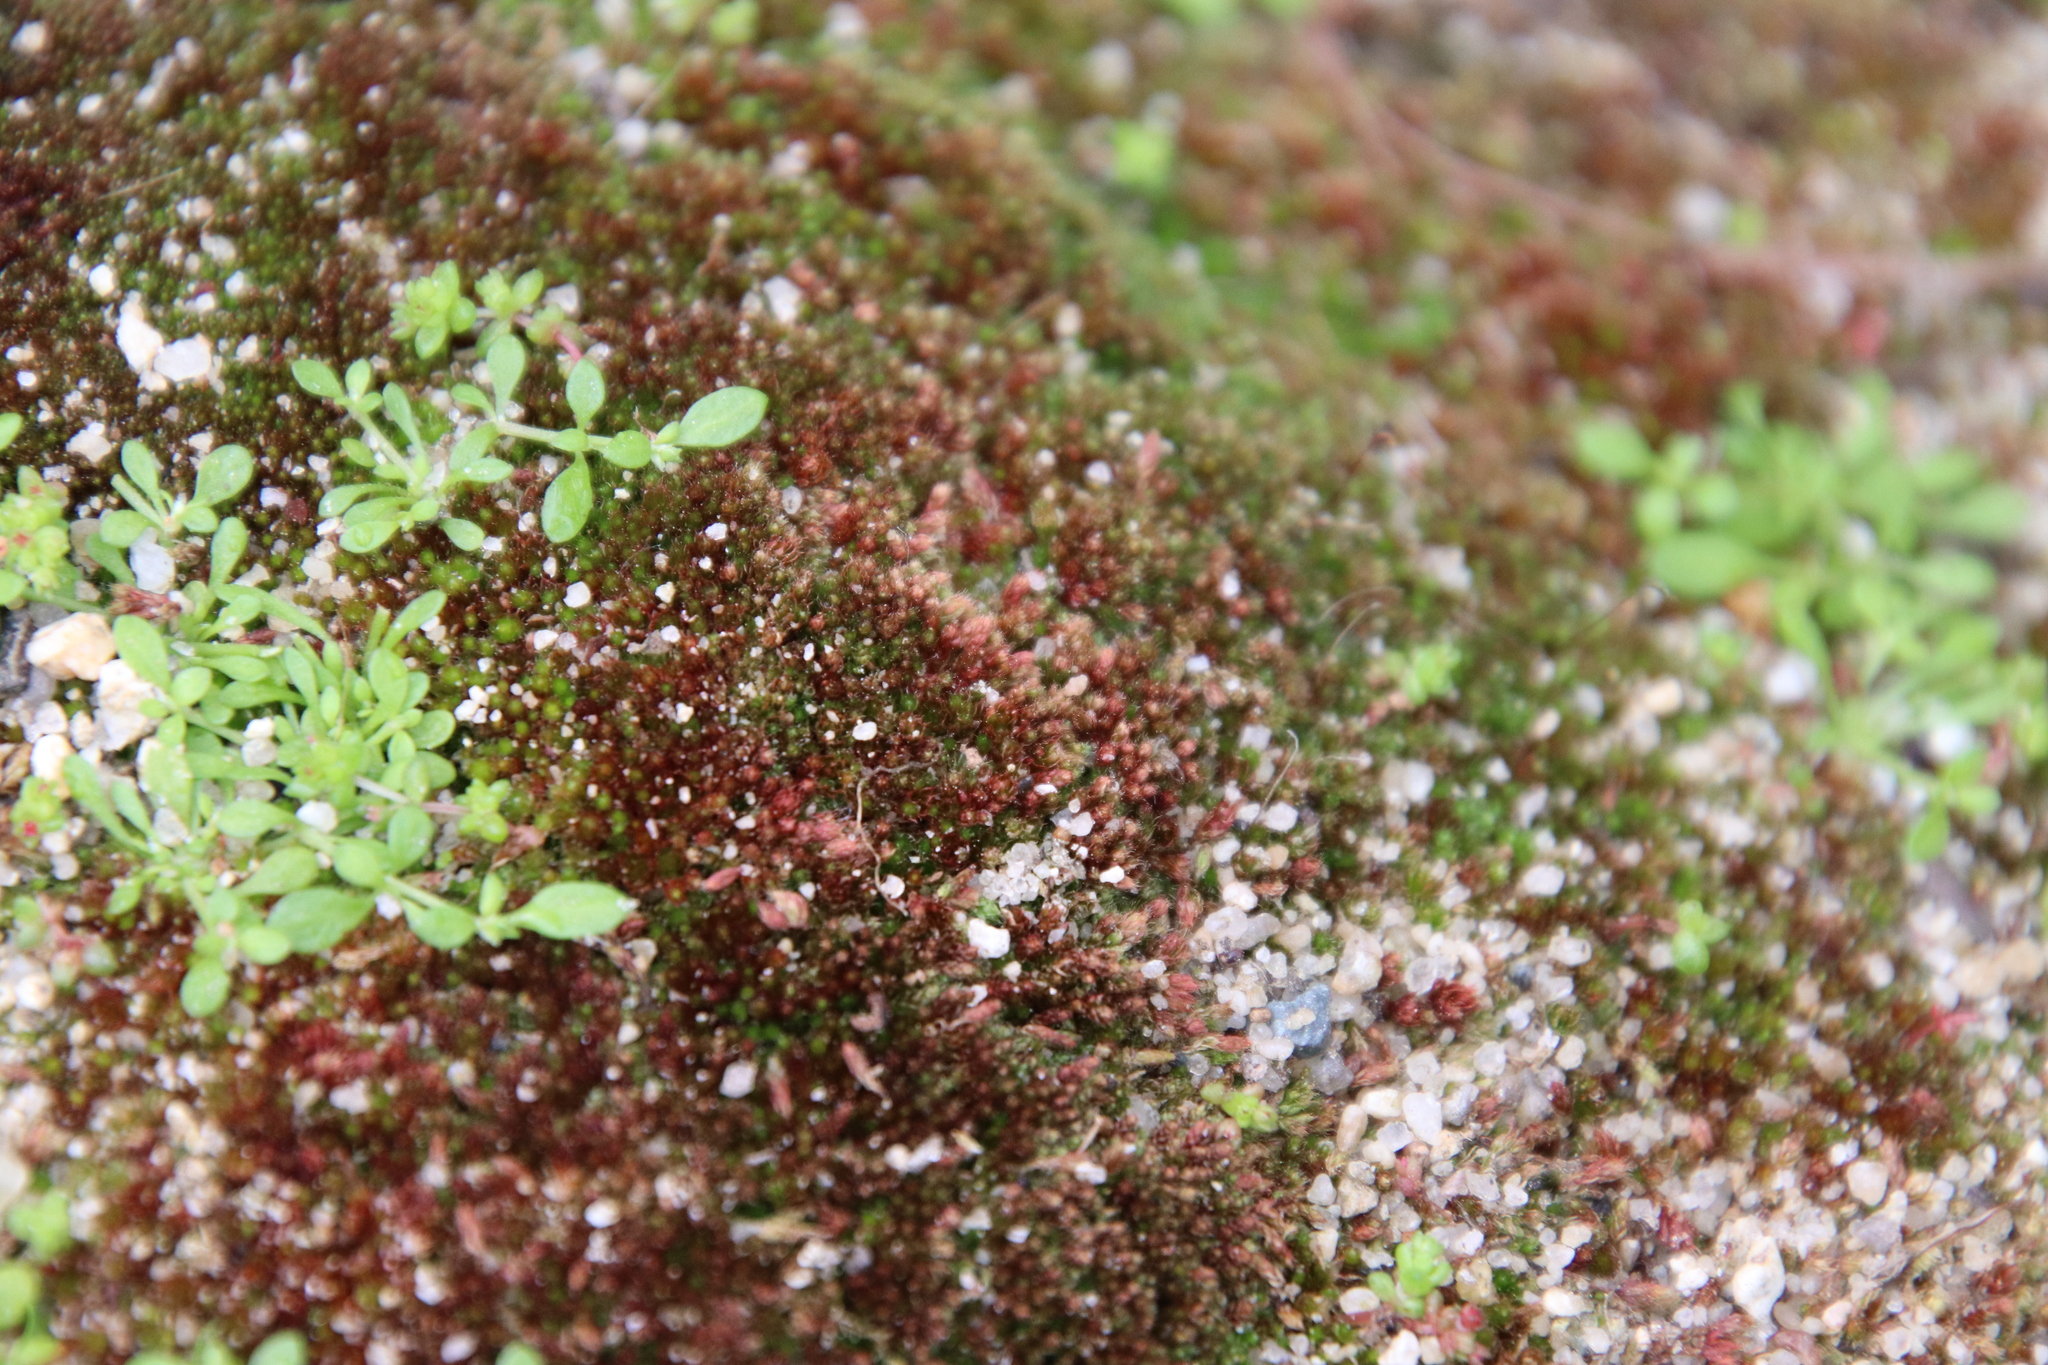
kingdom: Plantae
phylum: Bryophyta
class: Bryopsida
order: Bryales
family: Bryaceae
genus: Gemmabryum
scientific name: Gemmabryum vinosum
